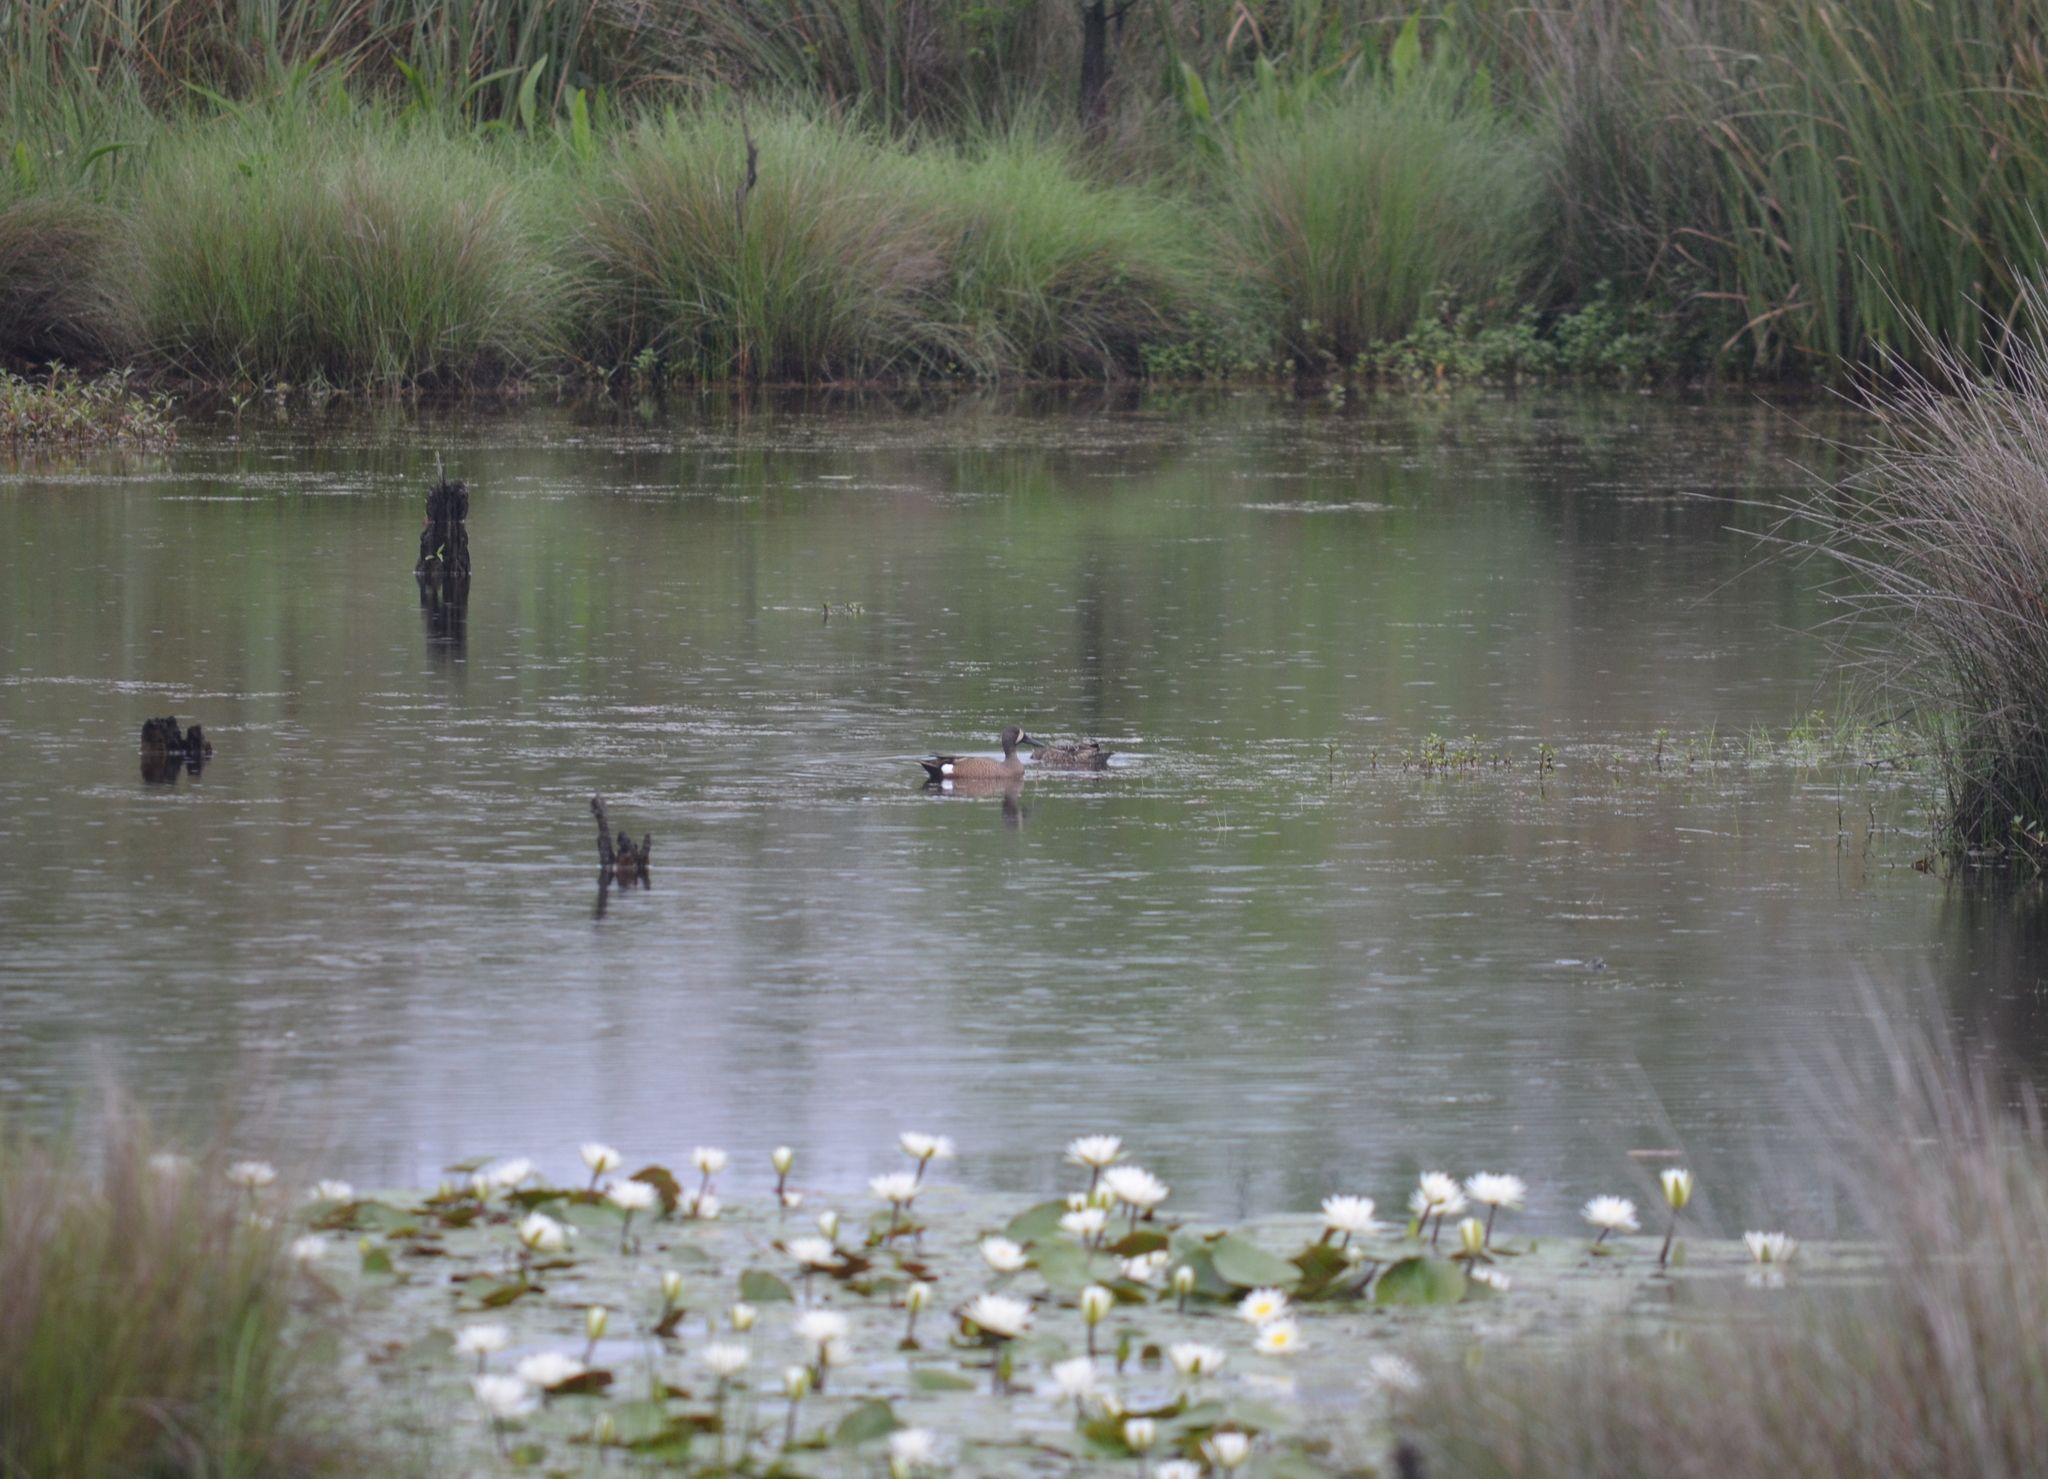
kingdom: Animalia
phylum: Chordata
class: Aves
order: Anseriformes
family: Anatidae
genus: Spatula
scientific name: Spatula discors
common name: Blue-winged teal
